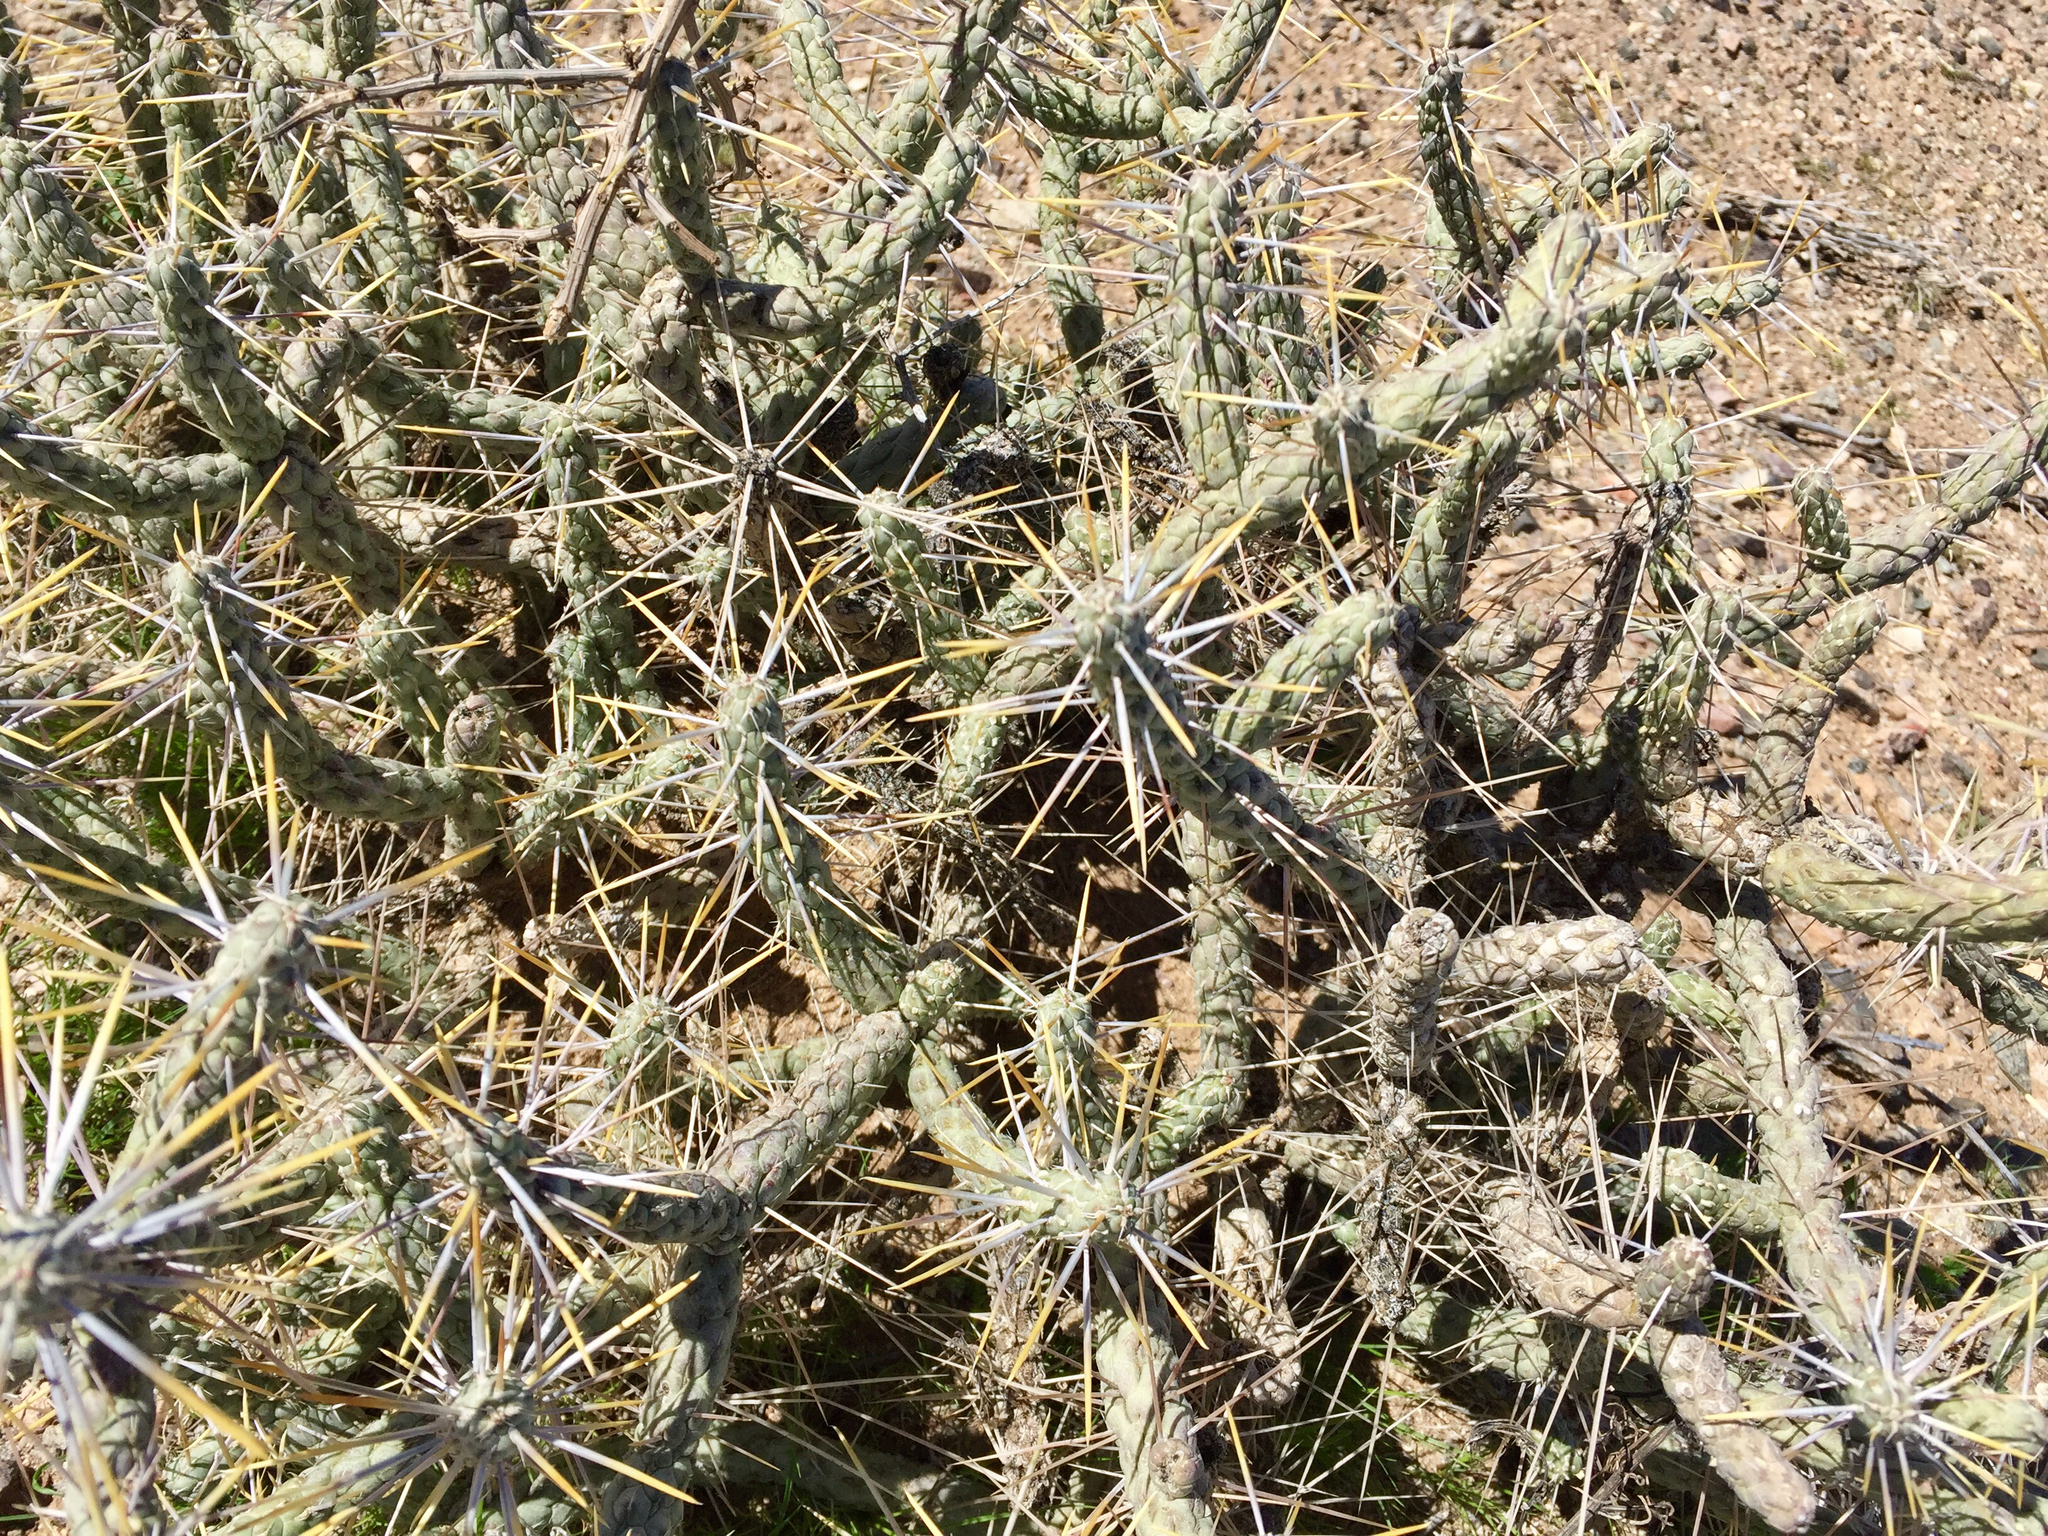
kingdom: Plantae
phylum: Tracheophyta
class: Magnoliopsida
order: Caryophyllales
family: Cactaceae
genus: Cylindropuntia
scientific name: Cylindropuntia ramosissima
